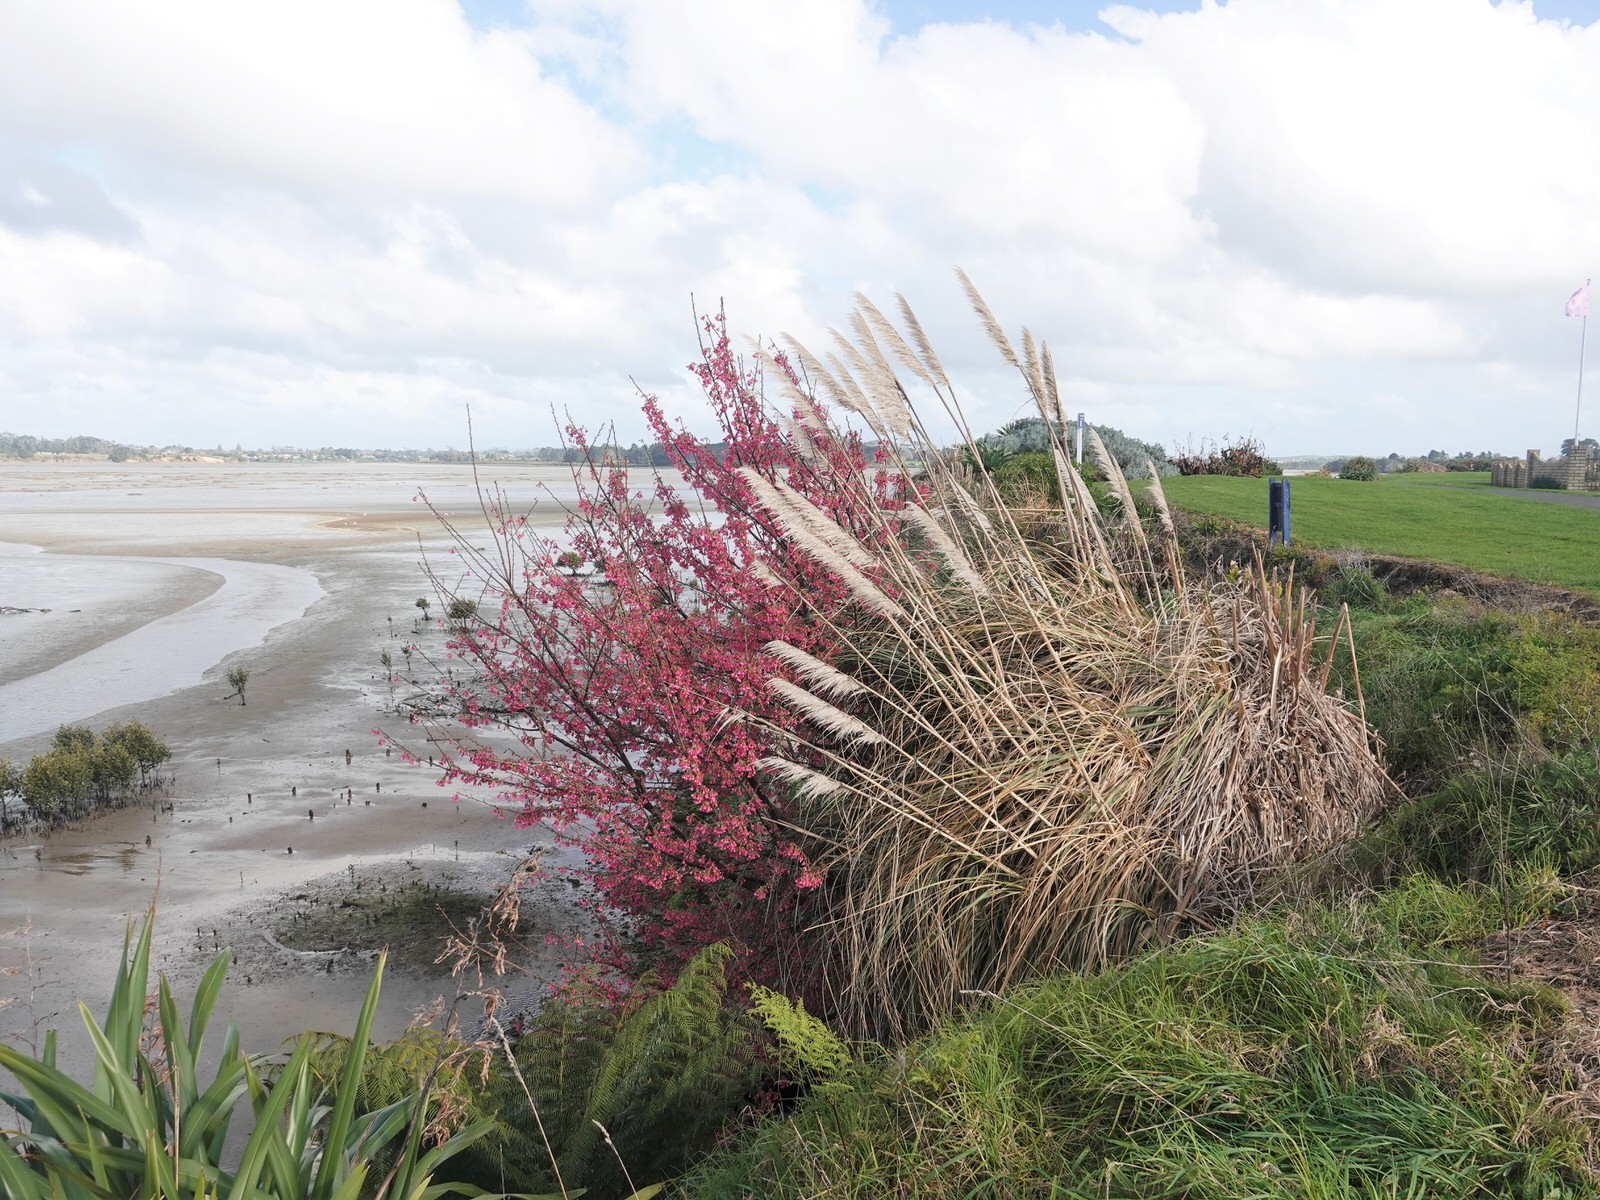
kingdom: Animalia
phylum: Chordata
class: Aves
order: Passeriformes
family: Zosteropidae
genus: Zosterops
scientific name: Zosterops lateralis
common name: Silvereye
